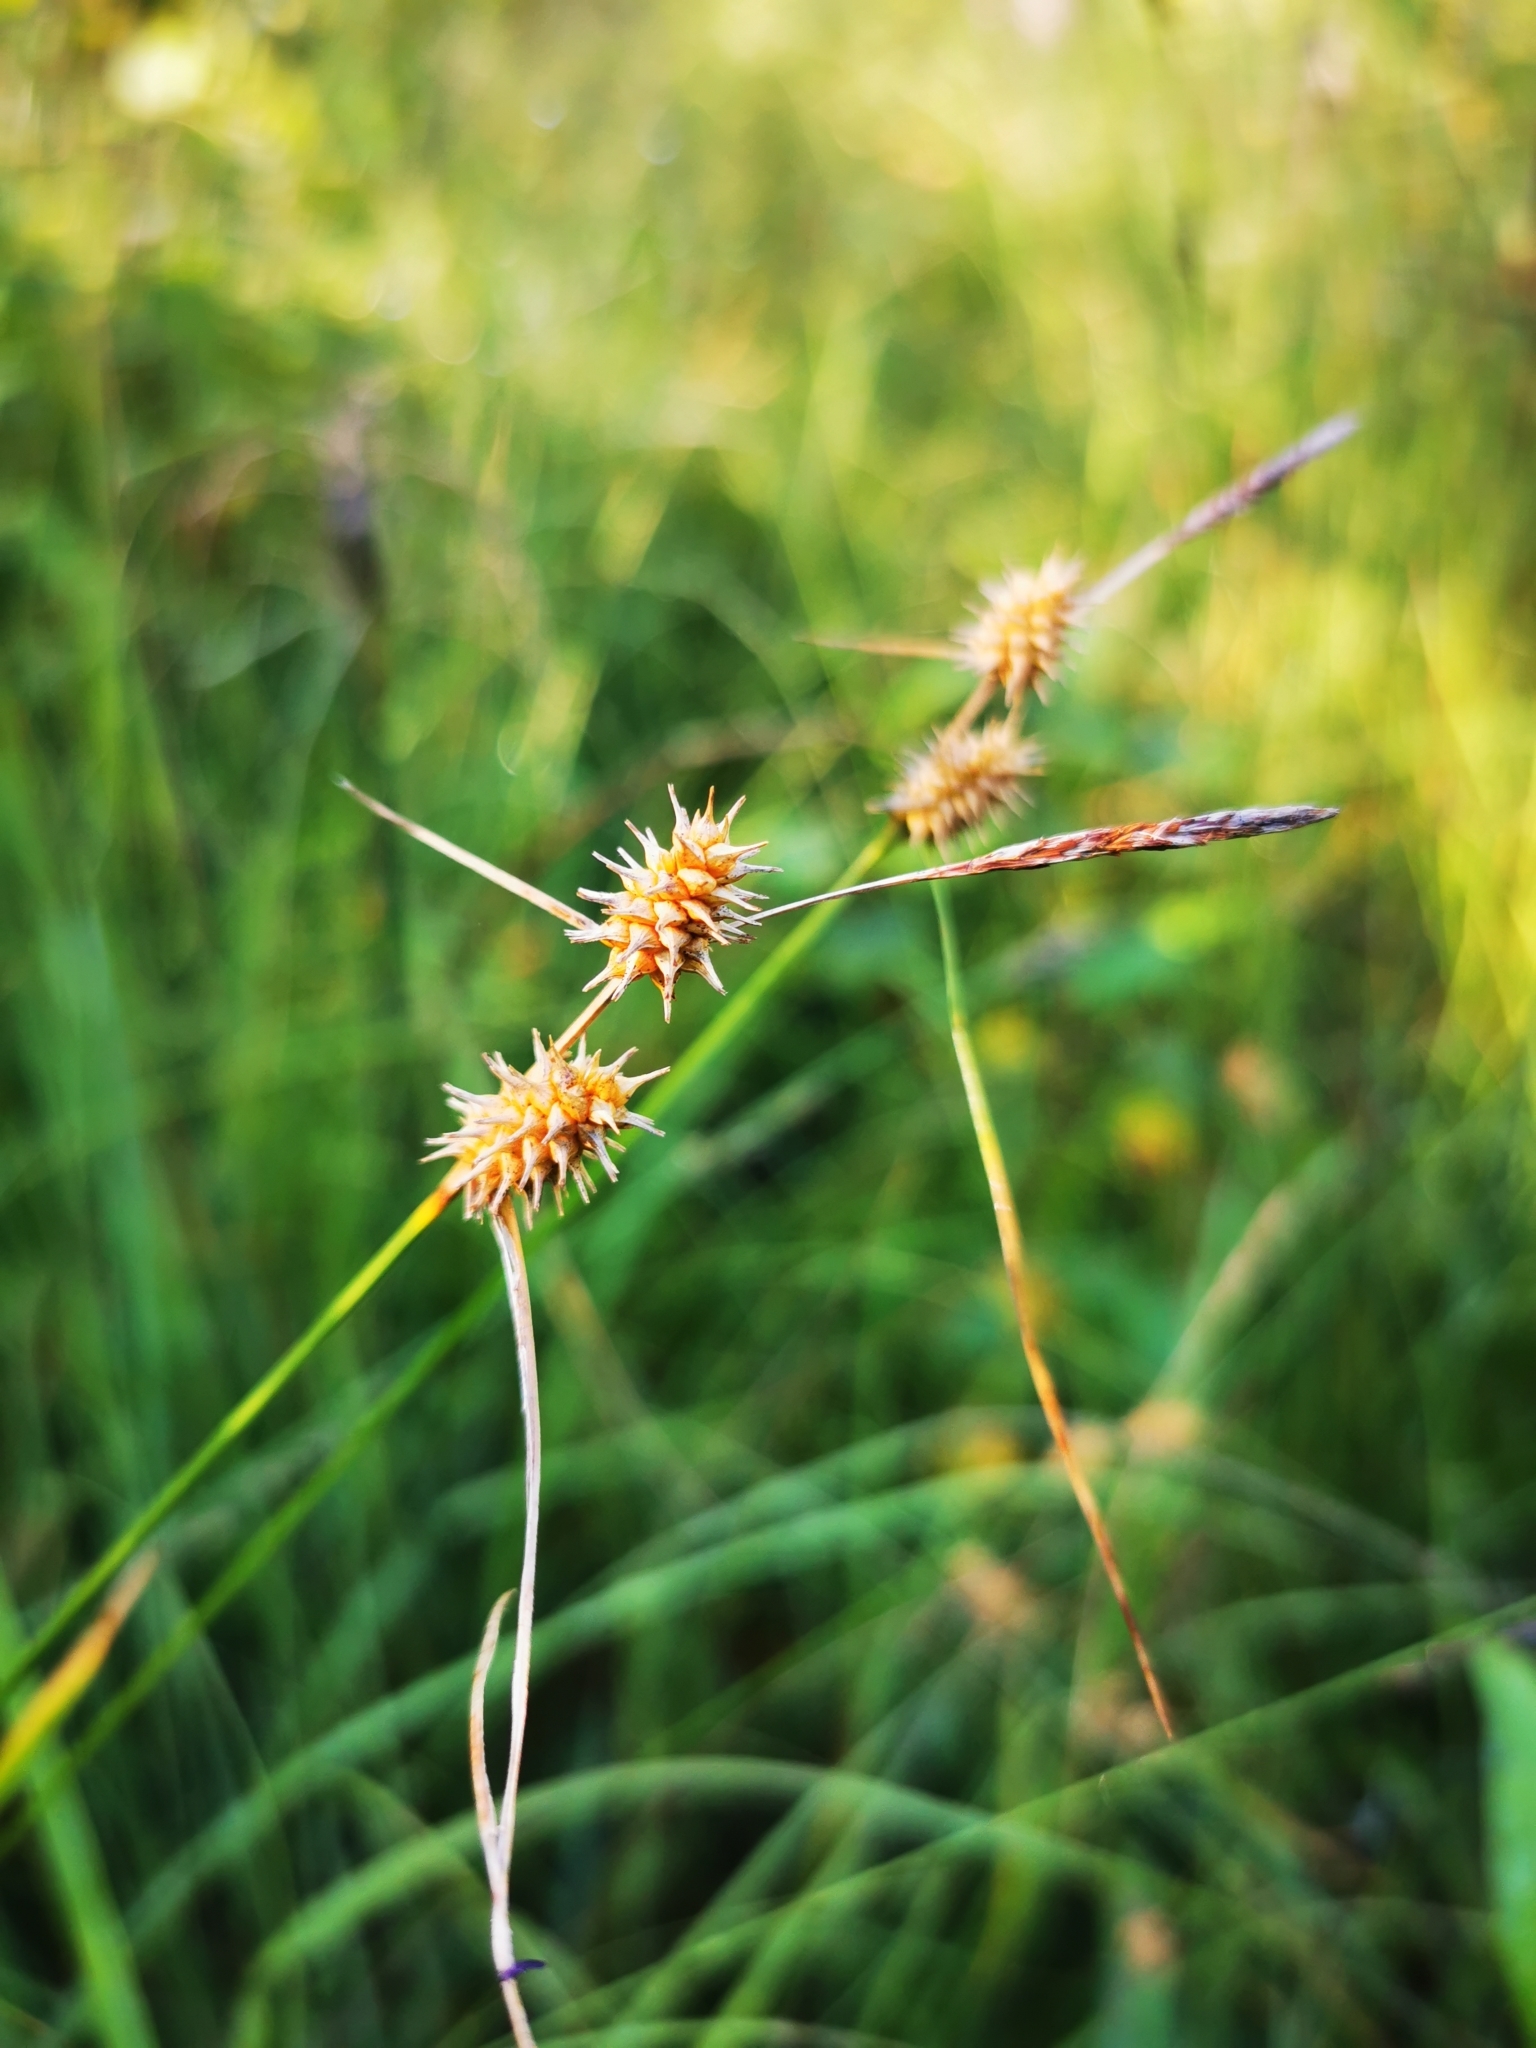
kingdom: Plantae
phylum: Tracheophyta
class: Liliopsida
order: Poales
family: Cyperaceae
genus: Carex
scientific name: Carex lepidocarpa
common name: Long-stalked yellow-sedge
